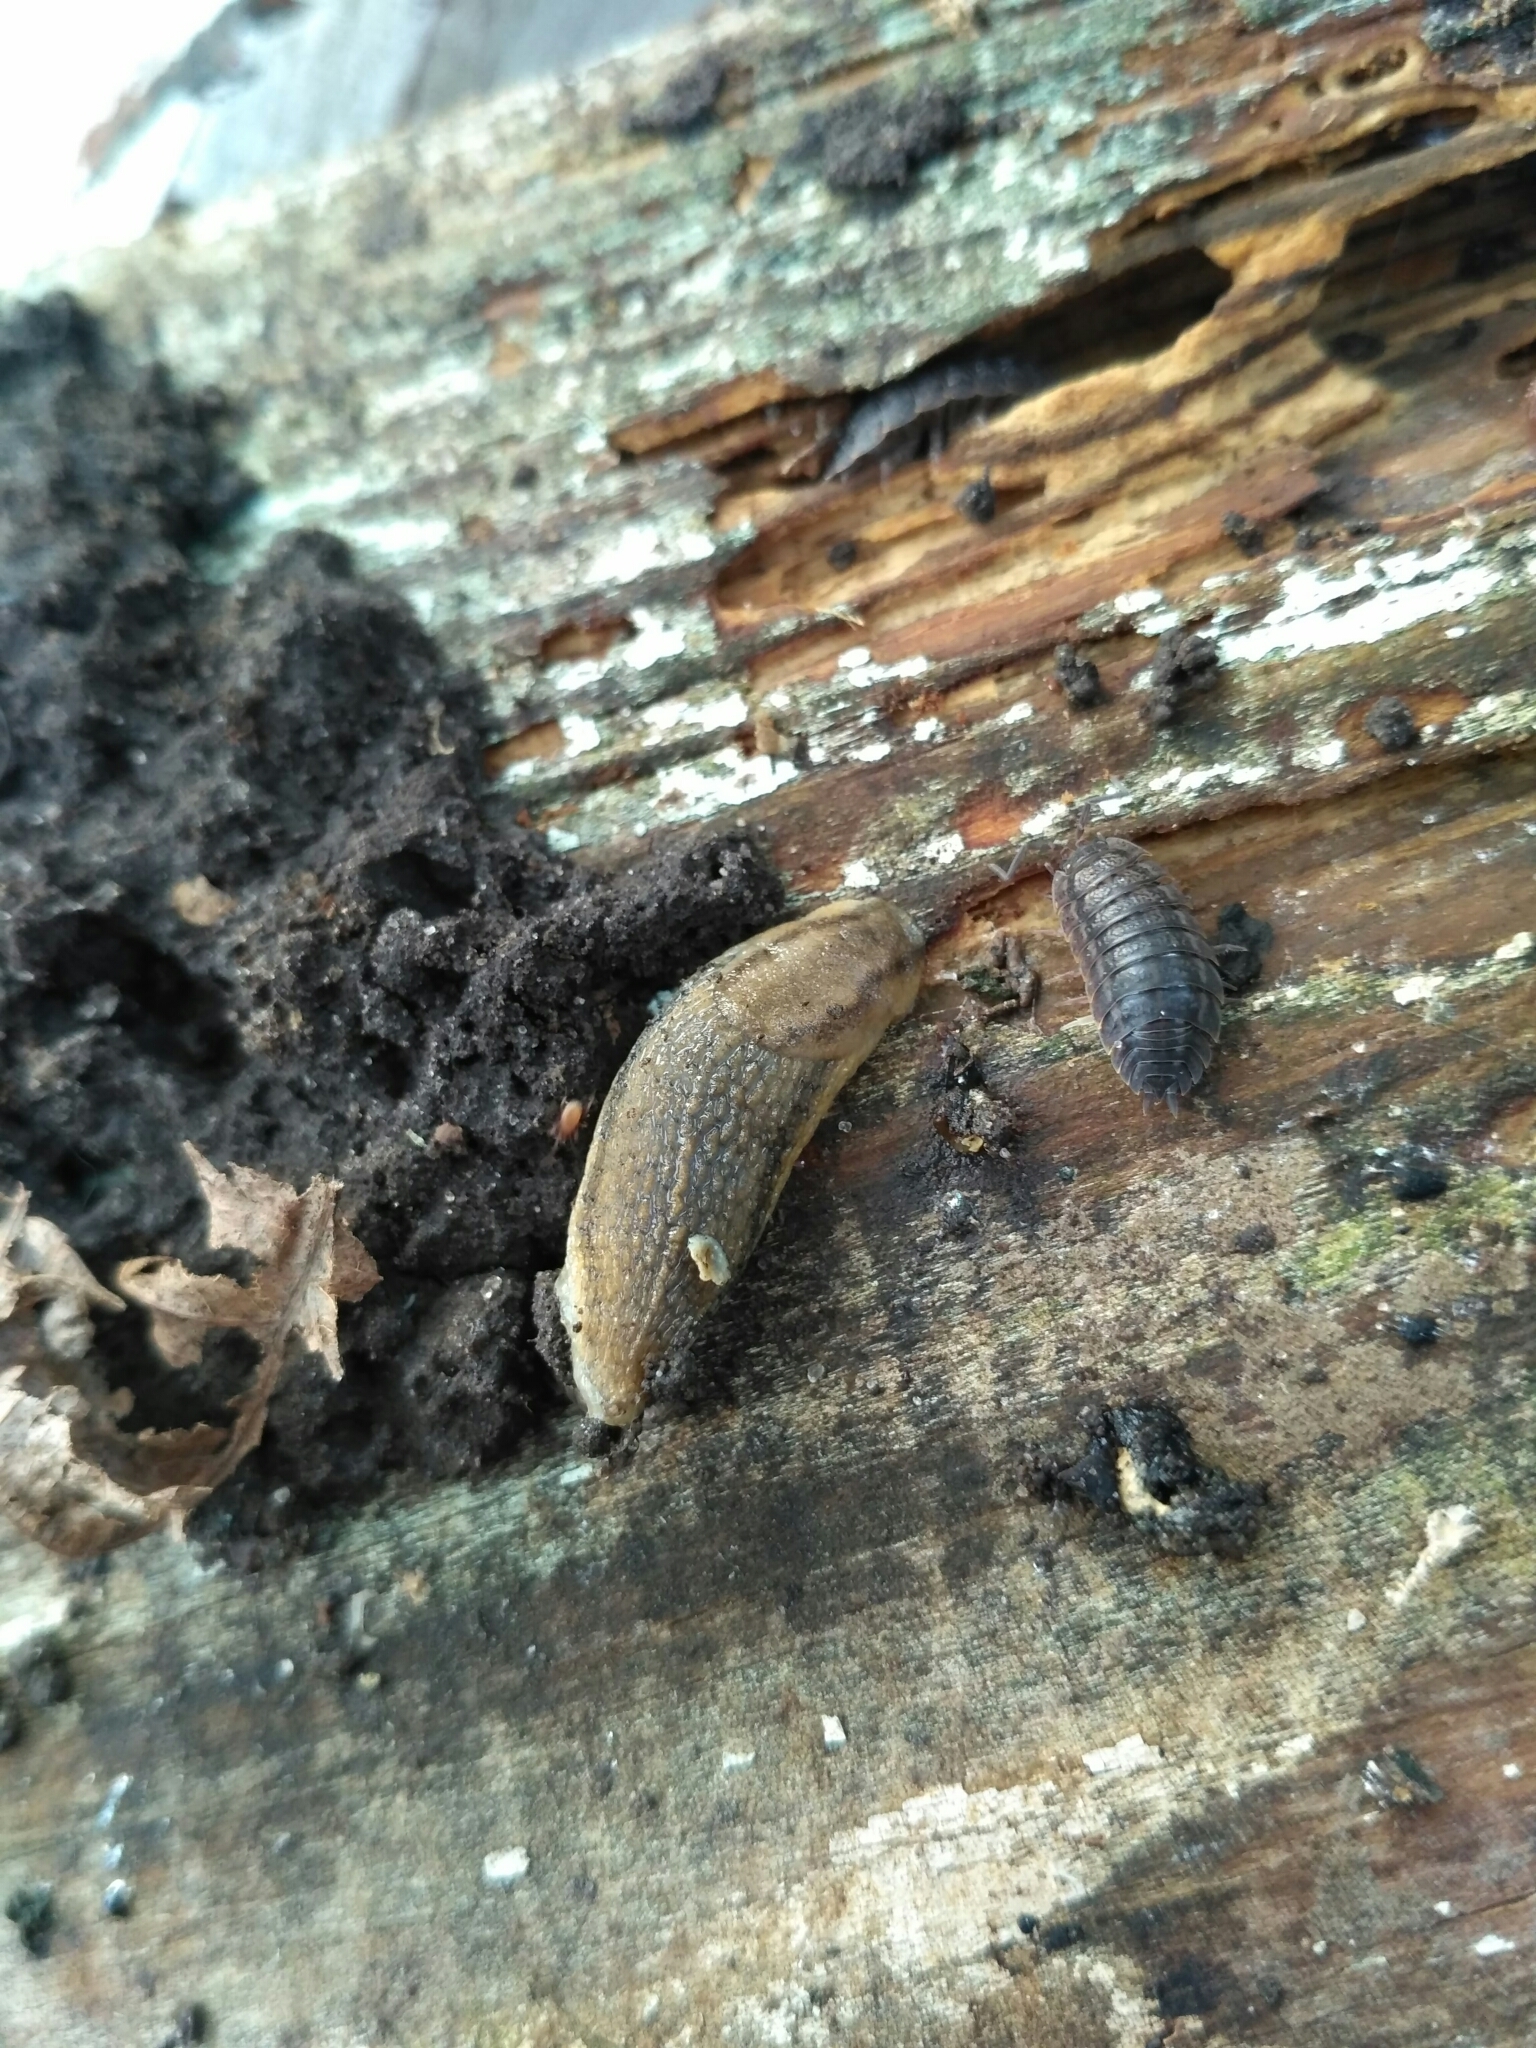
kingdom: Animalia
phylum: Mollusca
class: Gastropoda
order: Stylommatophora
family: Arionidae
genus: Arion
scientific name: Arion fasciatus
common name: Orange-banded arion
